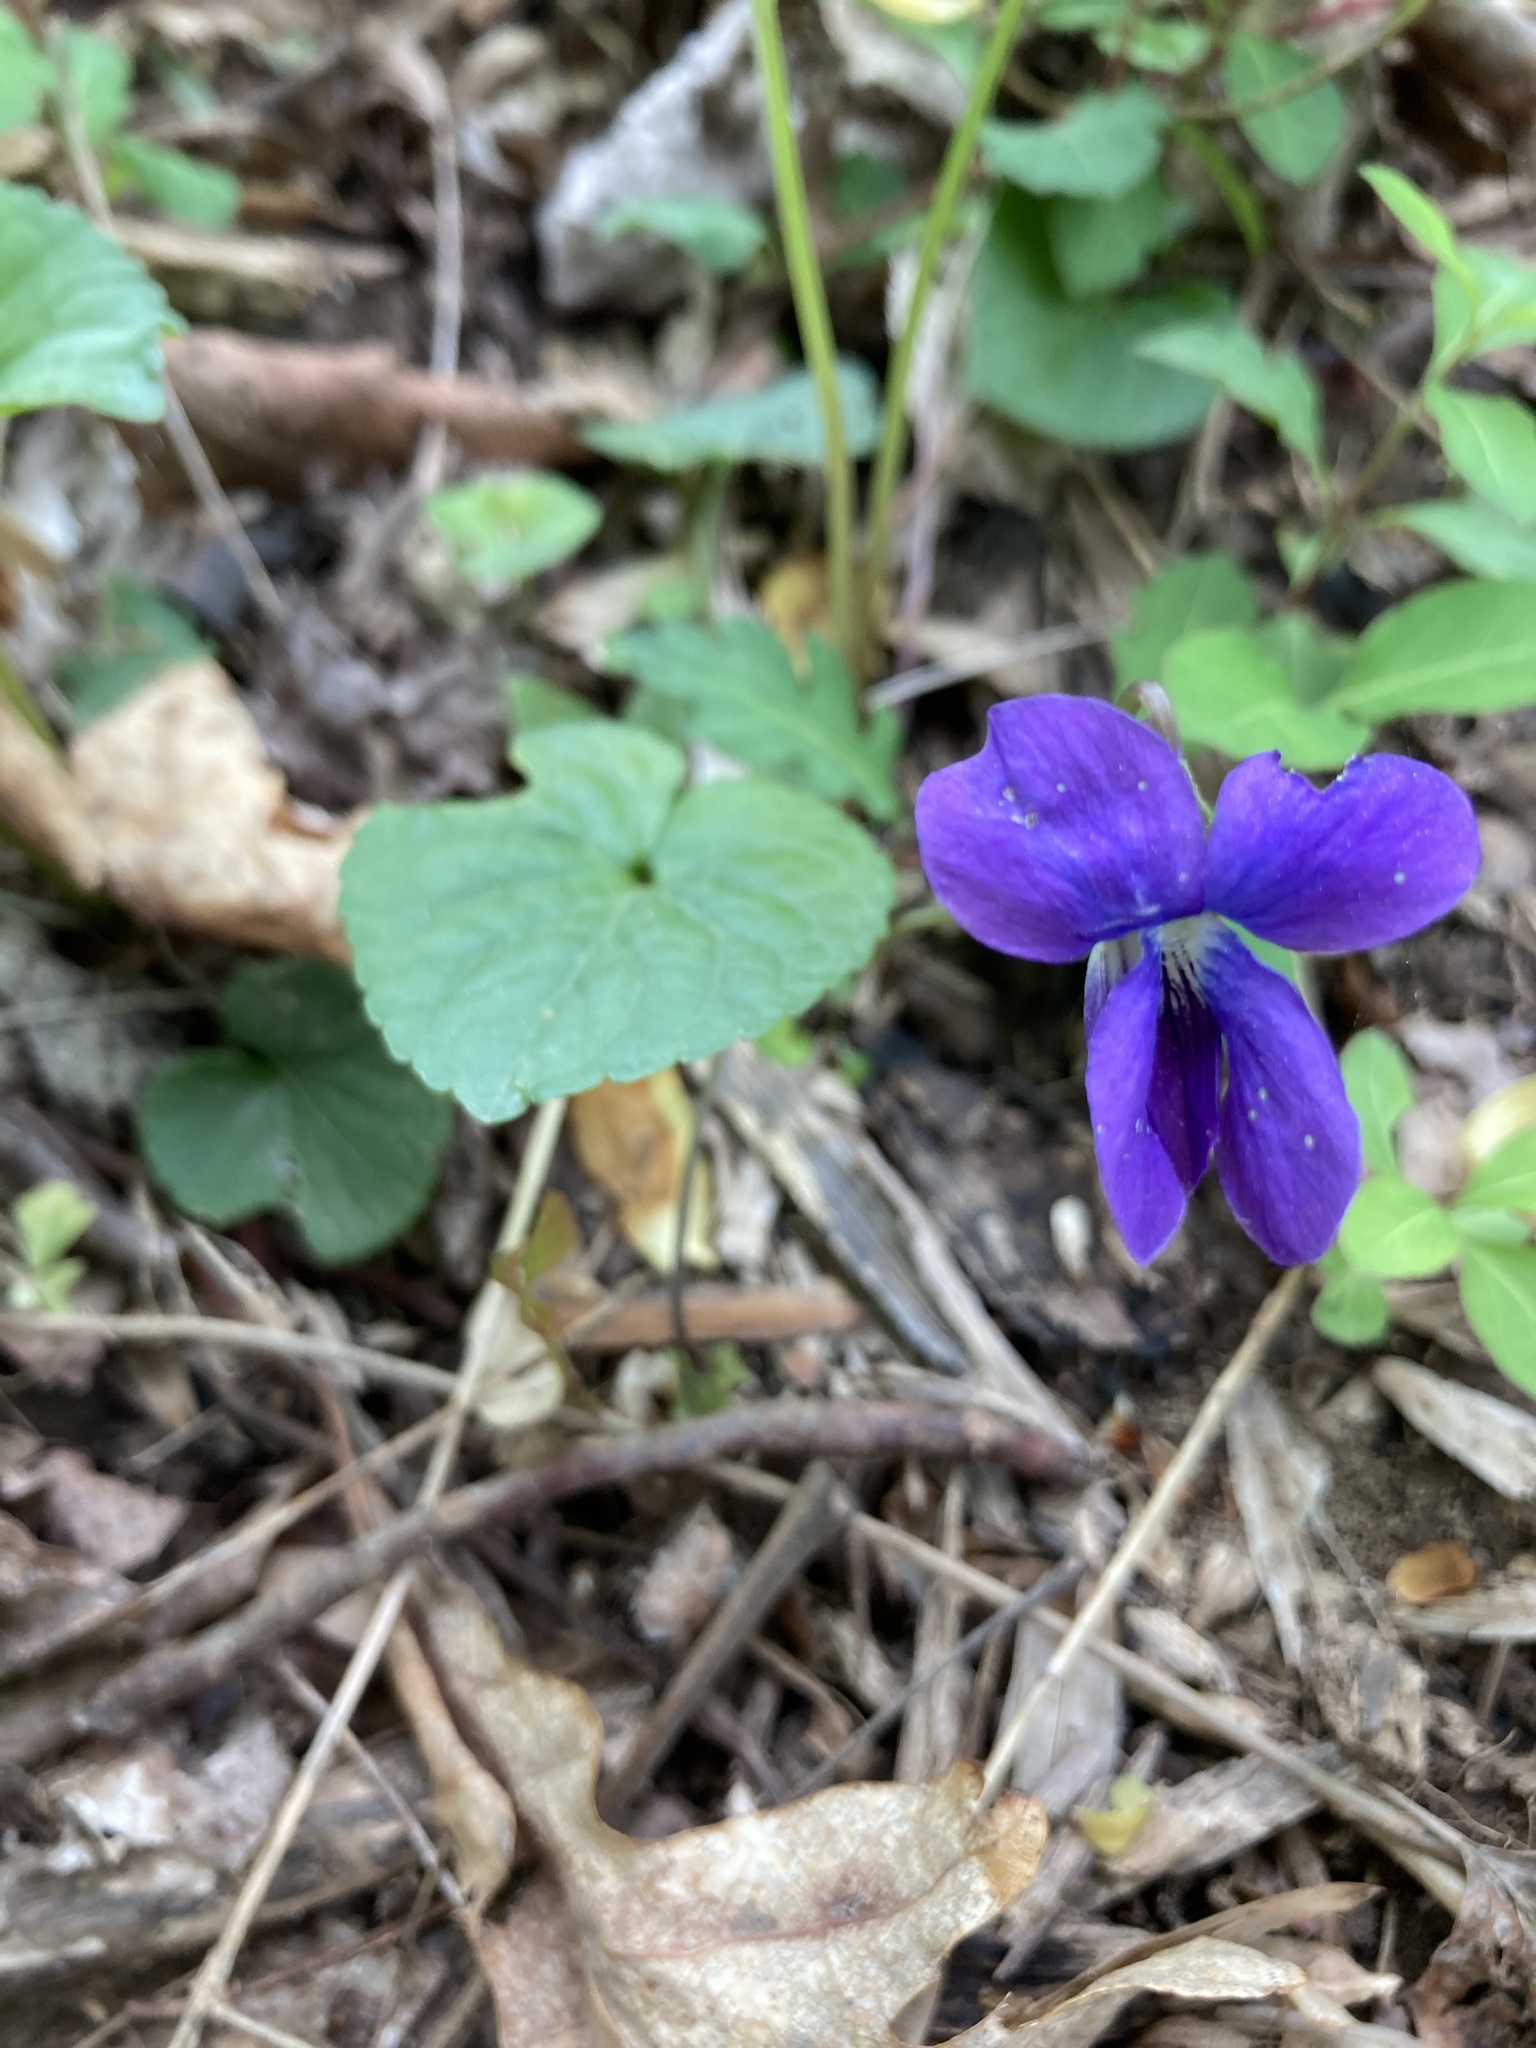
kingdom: Plantae
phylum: Tracheophyta
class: Magnoliopsida
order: Malpighiales
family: Violaceae
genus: Viola
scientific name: Viola sororia
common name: Dooryard violet
